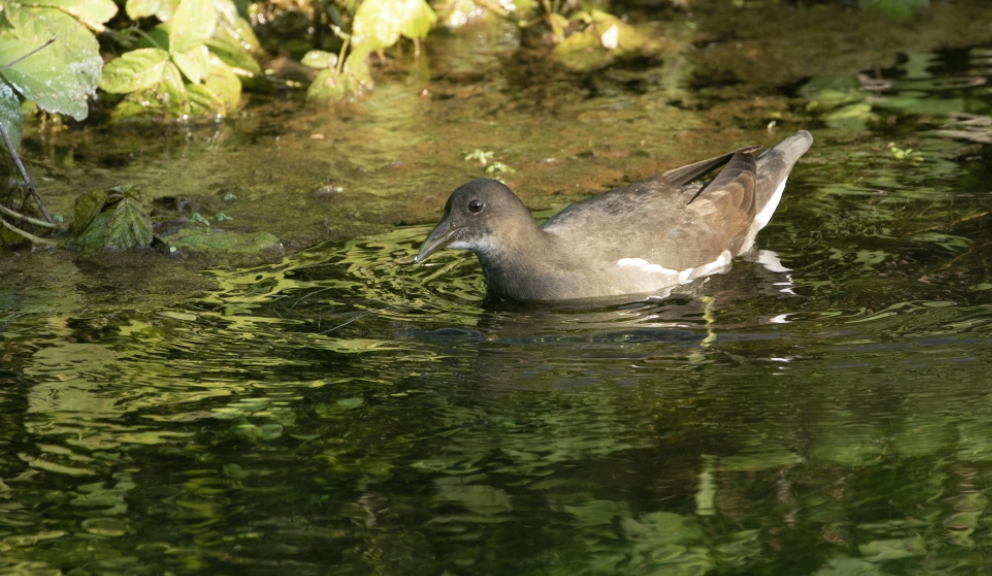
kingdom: Animalia
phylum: Chordata
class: Aves
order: Gruiformes
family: Rallidae
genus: Gallinula
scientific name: Gallinula chloropus
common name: Common moorhen
